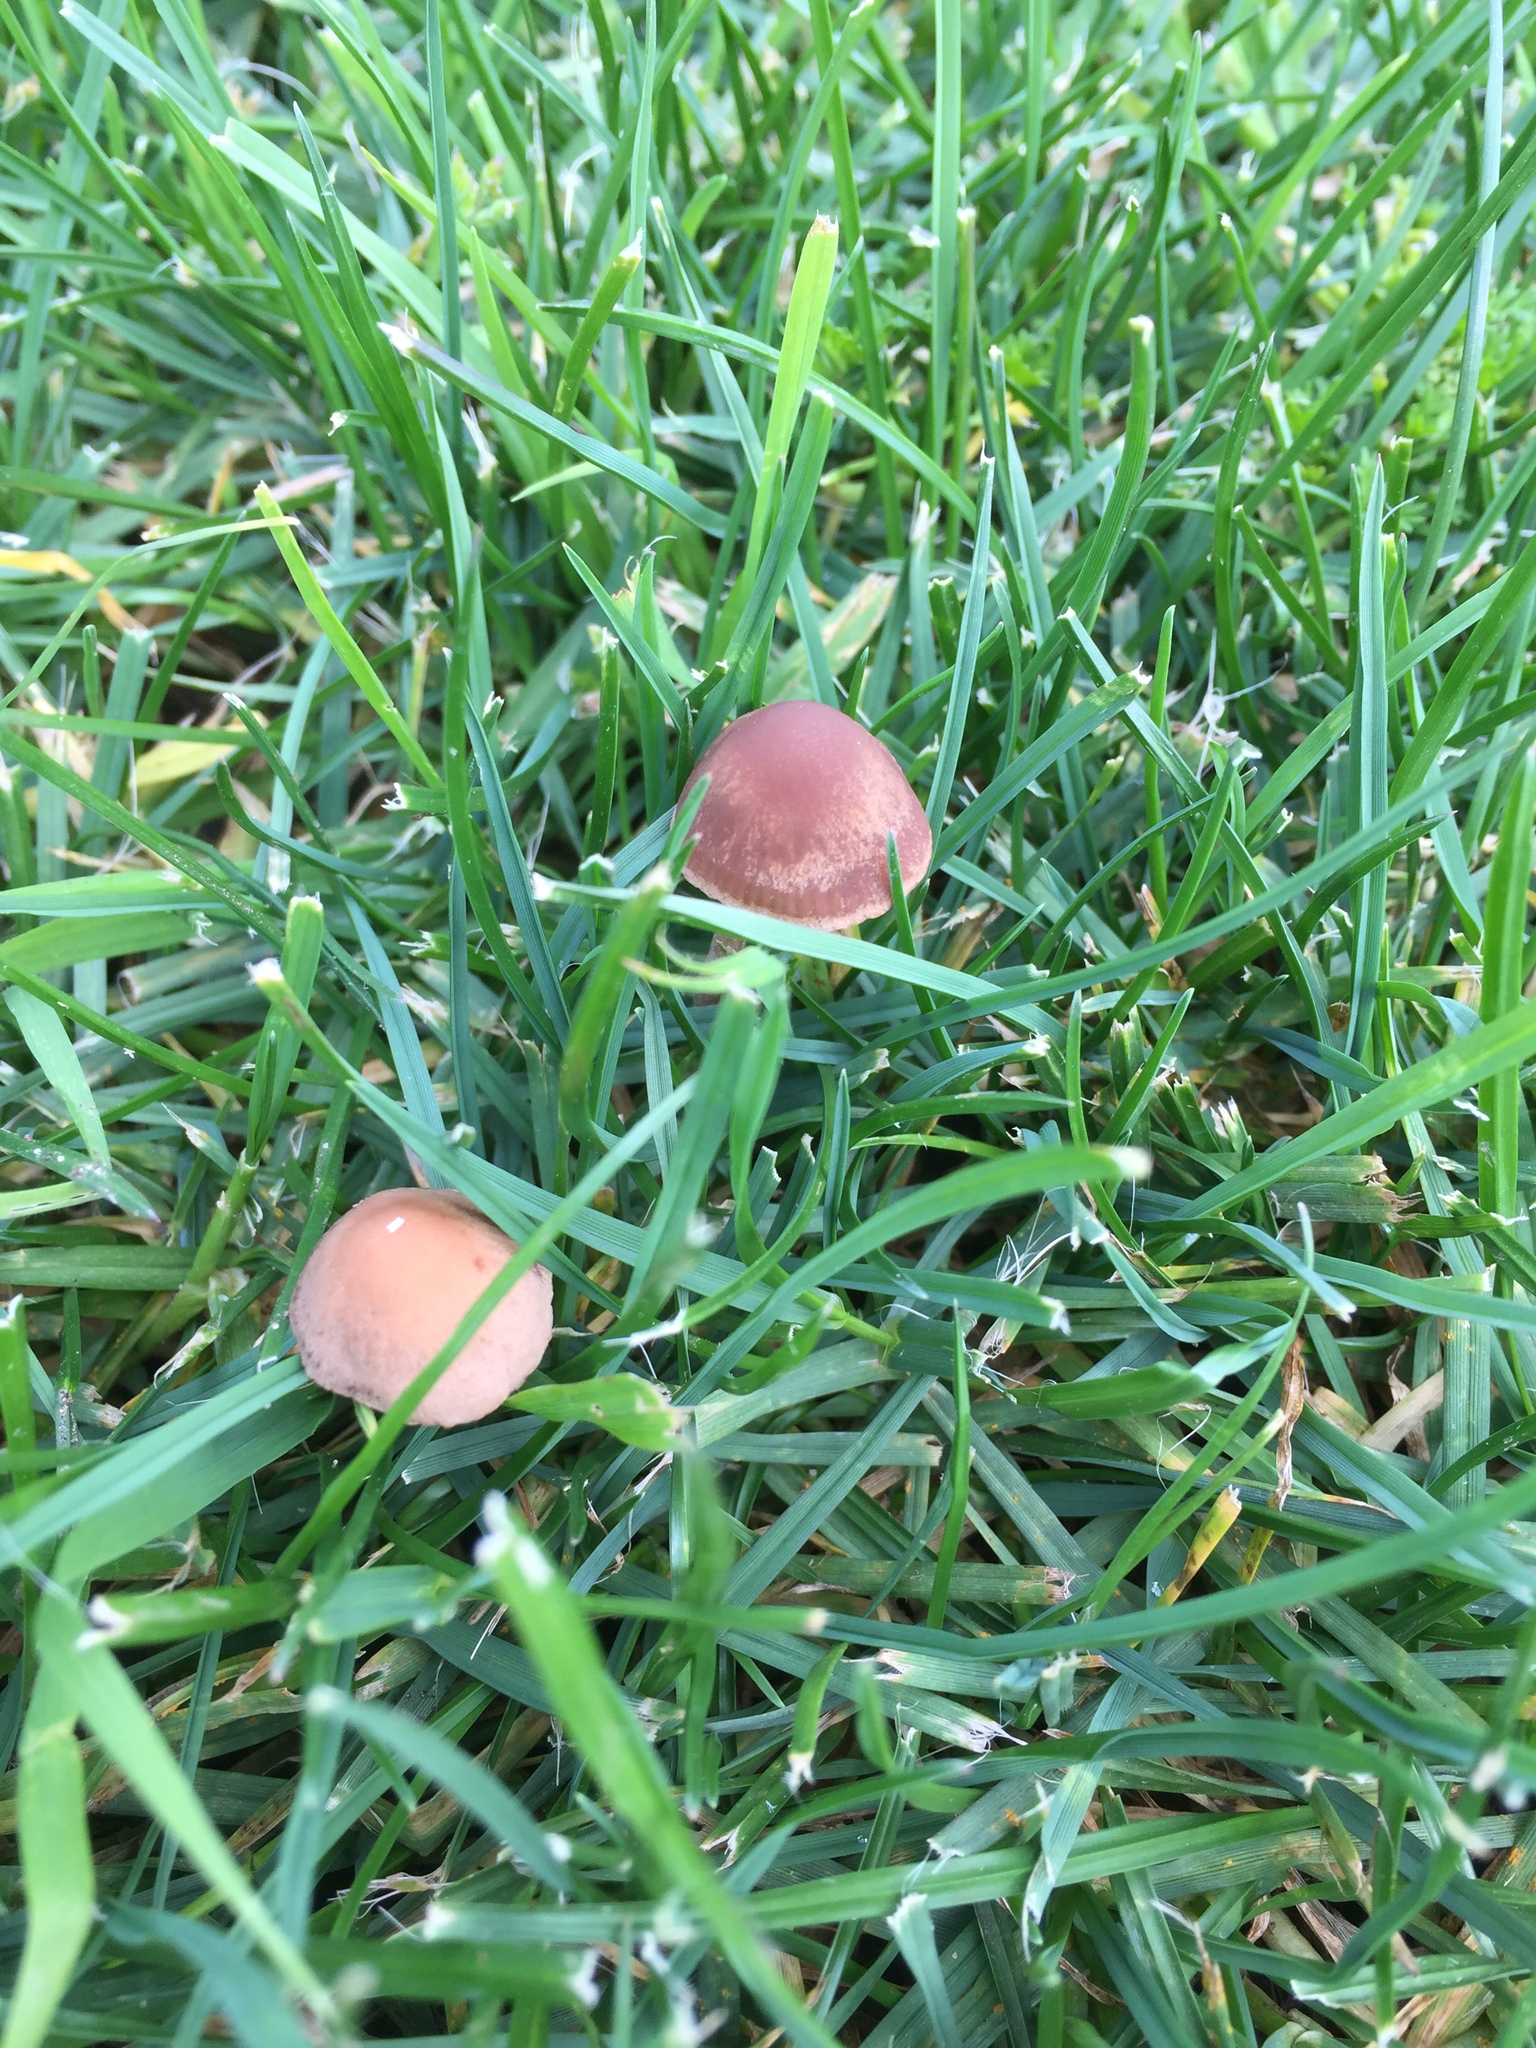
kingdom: Fungi
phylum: Basidiomycota
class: Agaricomycetes
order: Agaricales
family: Bolbitiaceae
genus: Panaeolina
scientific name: Panaeolina foenisecii
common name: Brown hay cap
